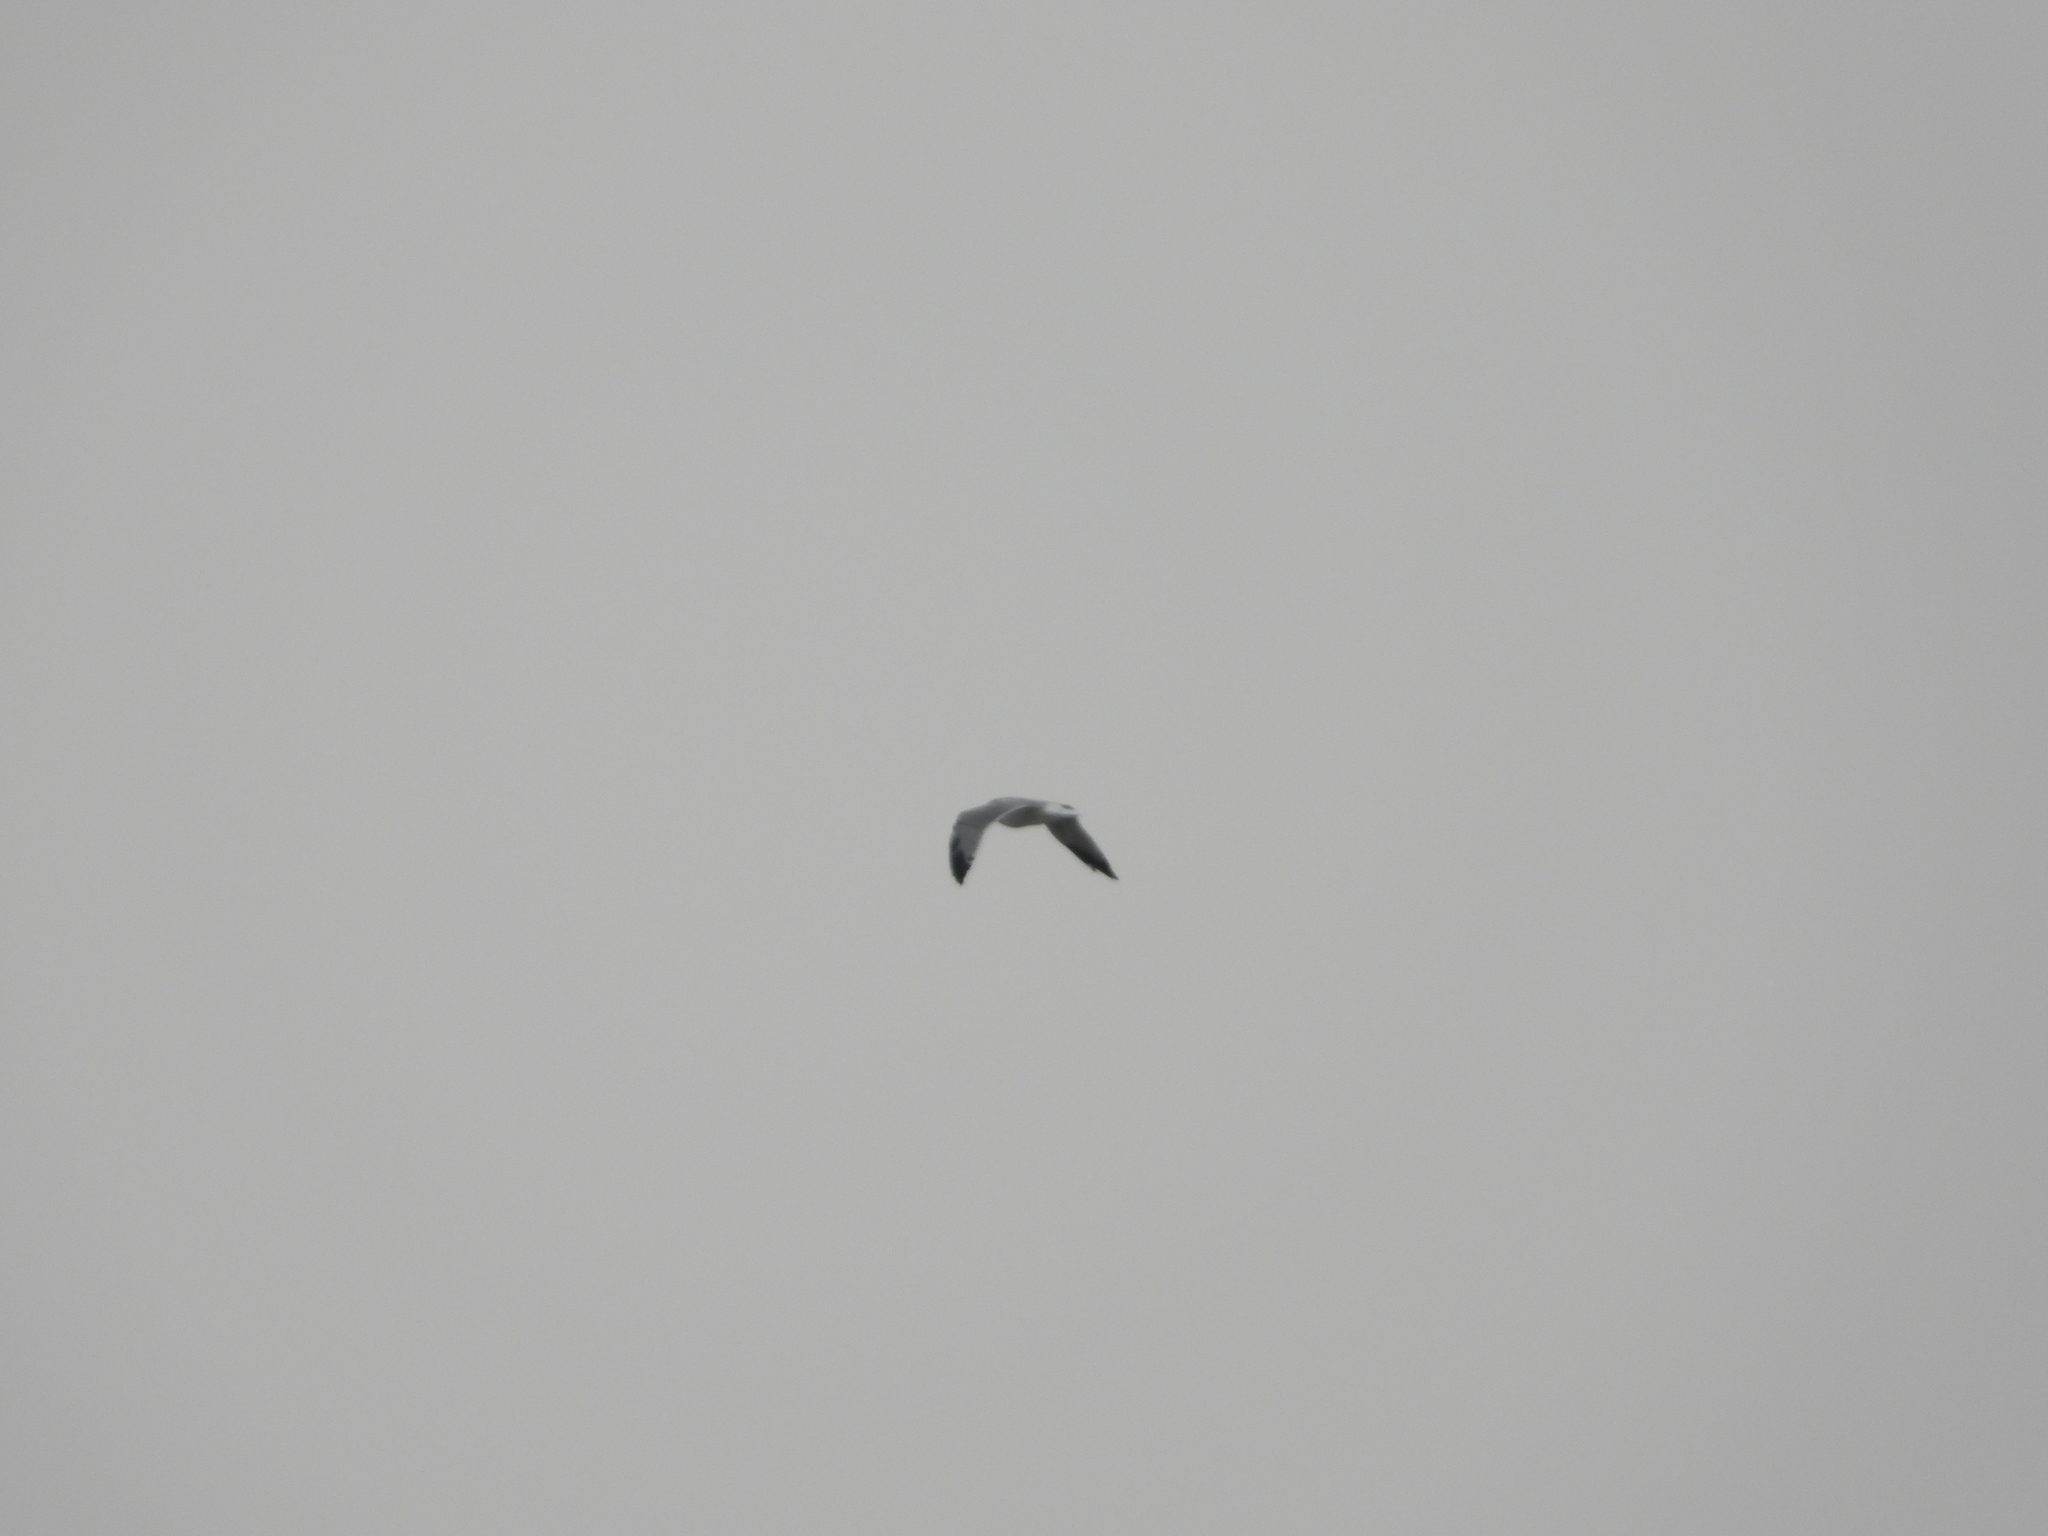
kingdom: Animalia
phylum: Chordata
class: Aves
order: Charadriiformes
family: Laridae
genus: Larus
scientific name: Larus
